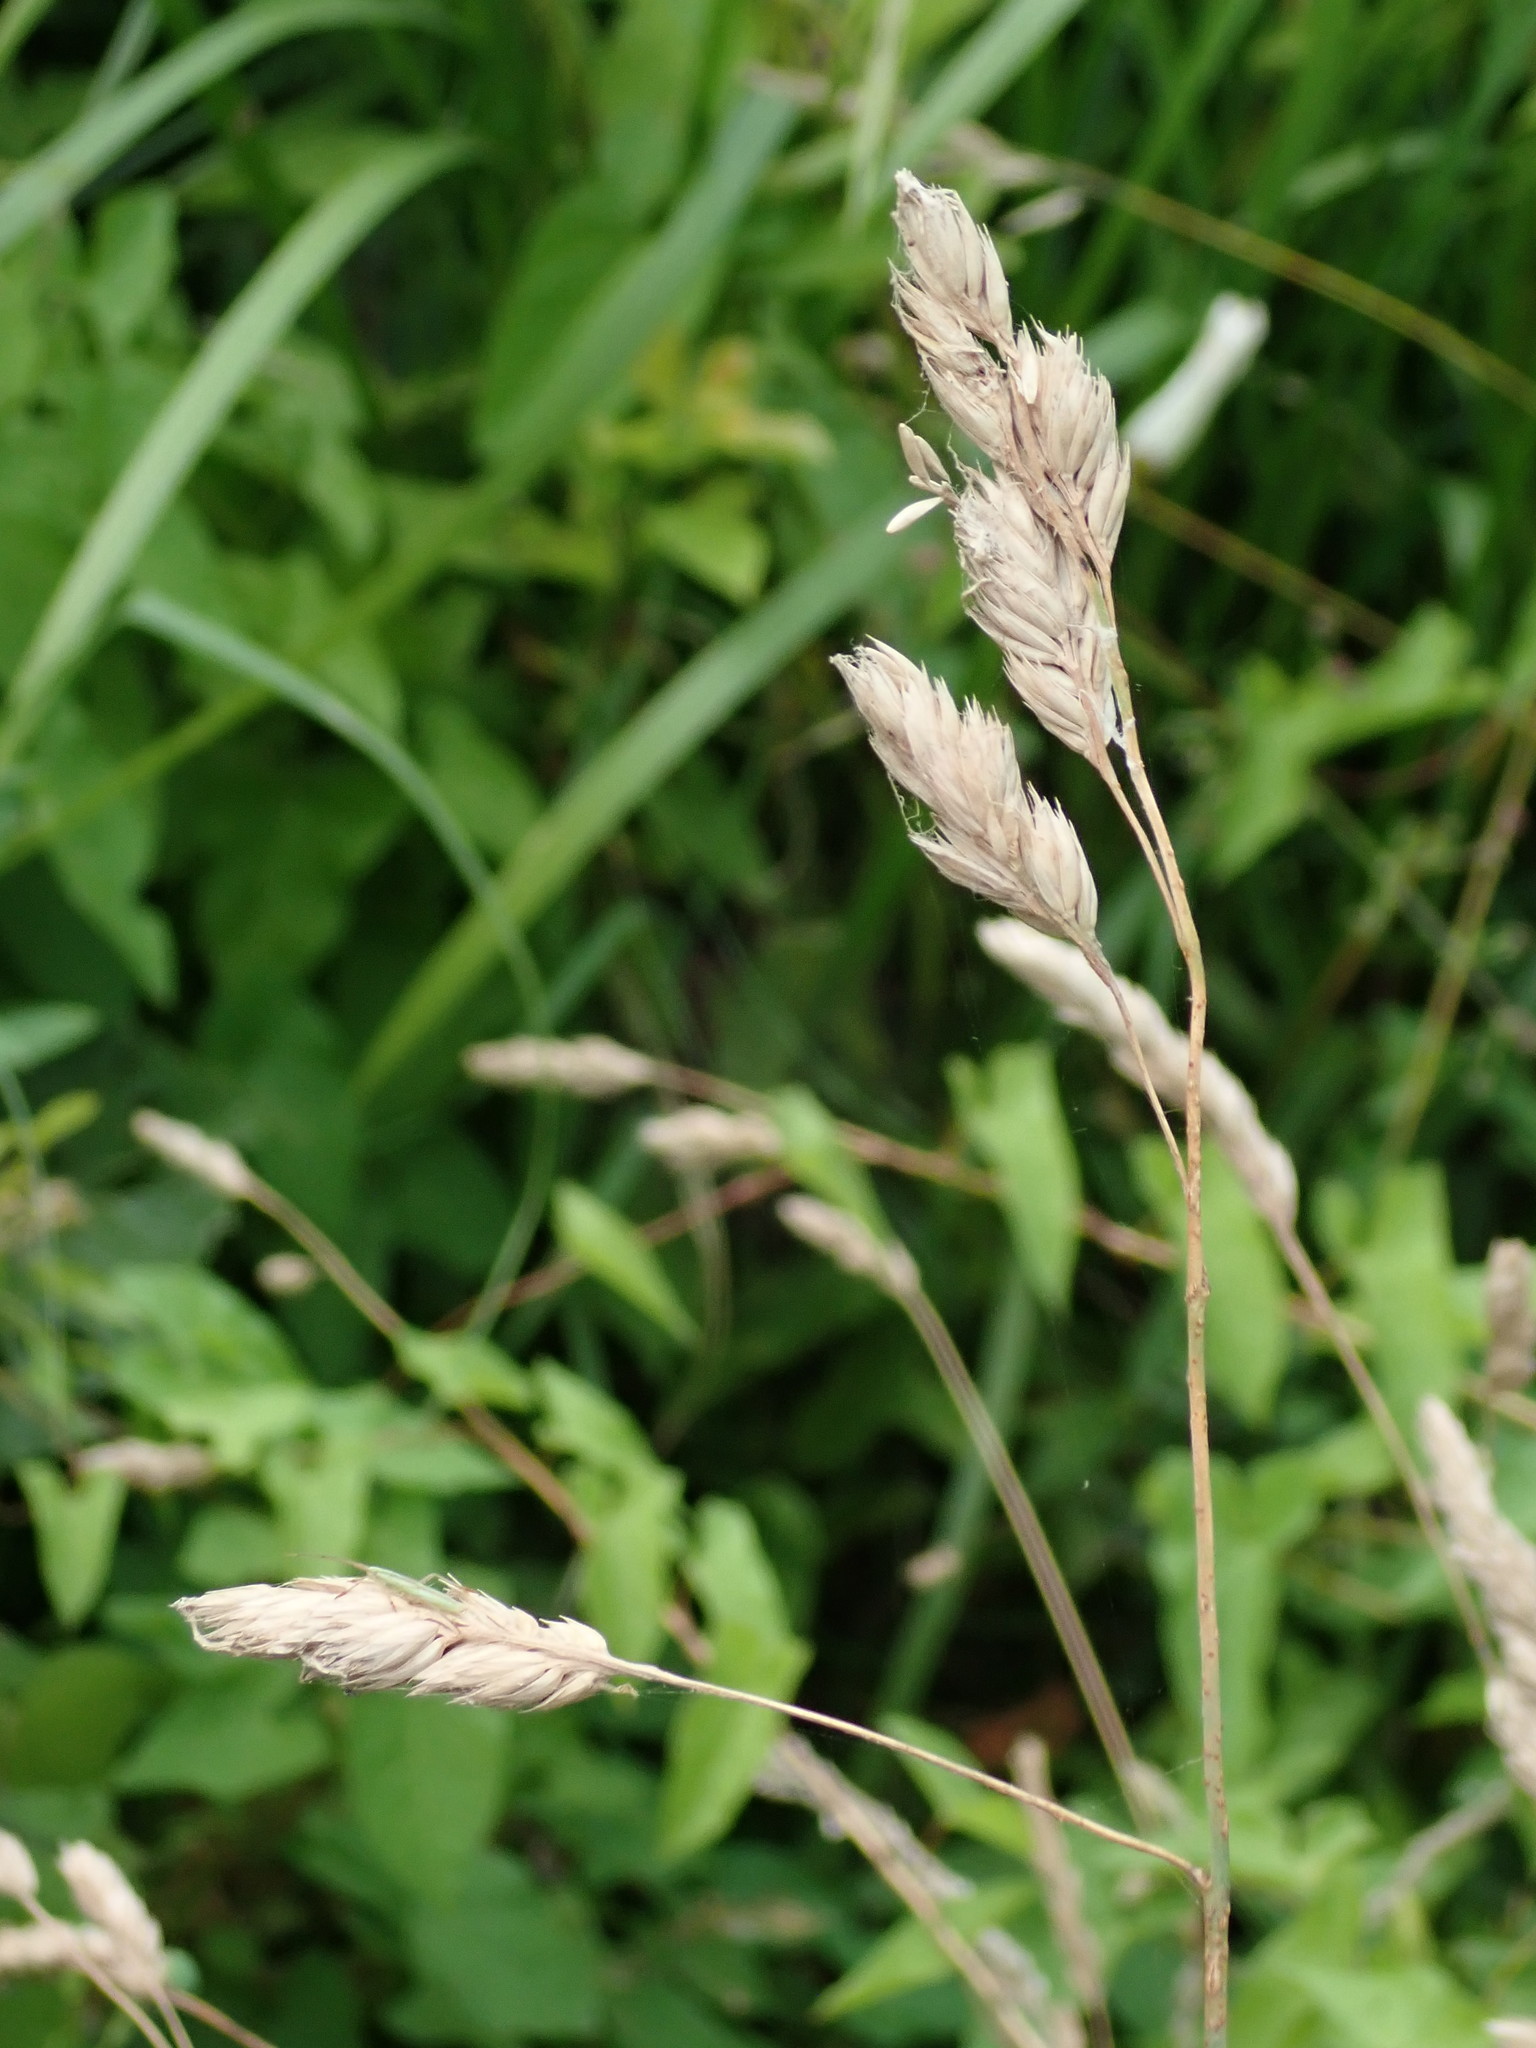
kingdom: Plantae
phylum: Tracheophyta
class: Liliopsida
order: Poales
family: Poaceae
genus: Dactylis
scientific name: Dactylis glomerata
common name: Orchardgrass
